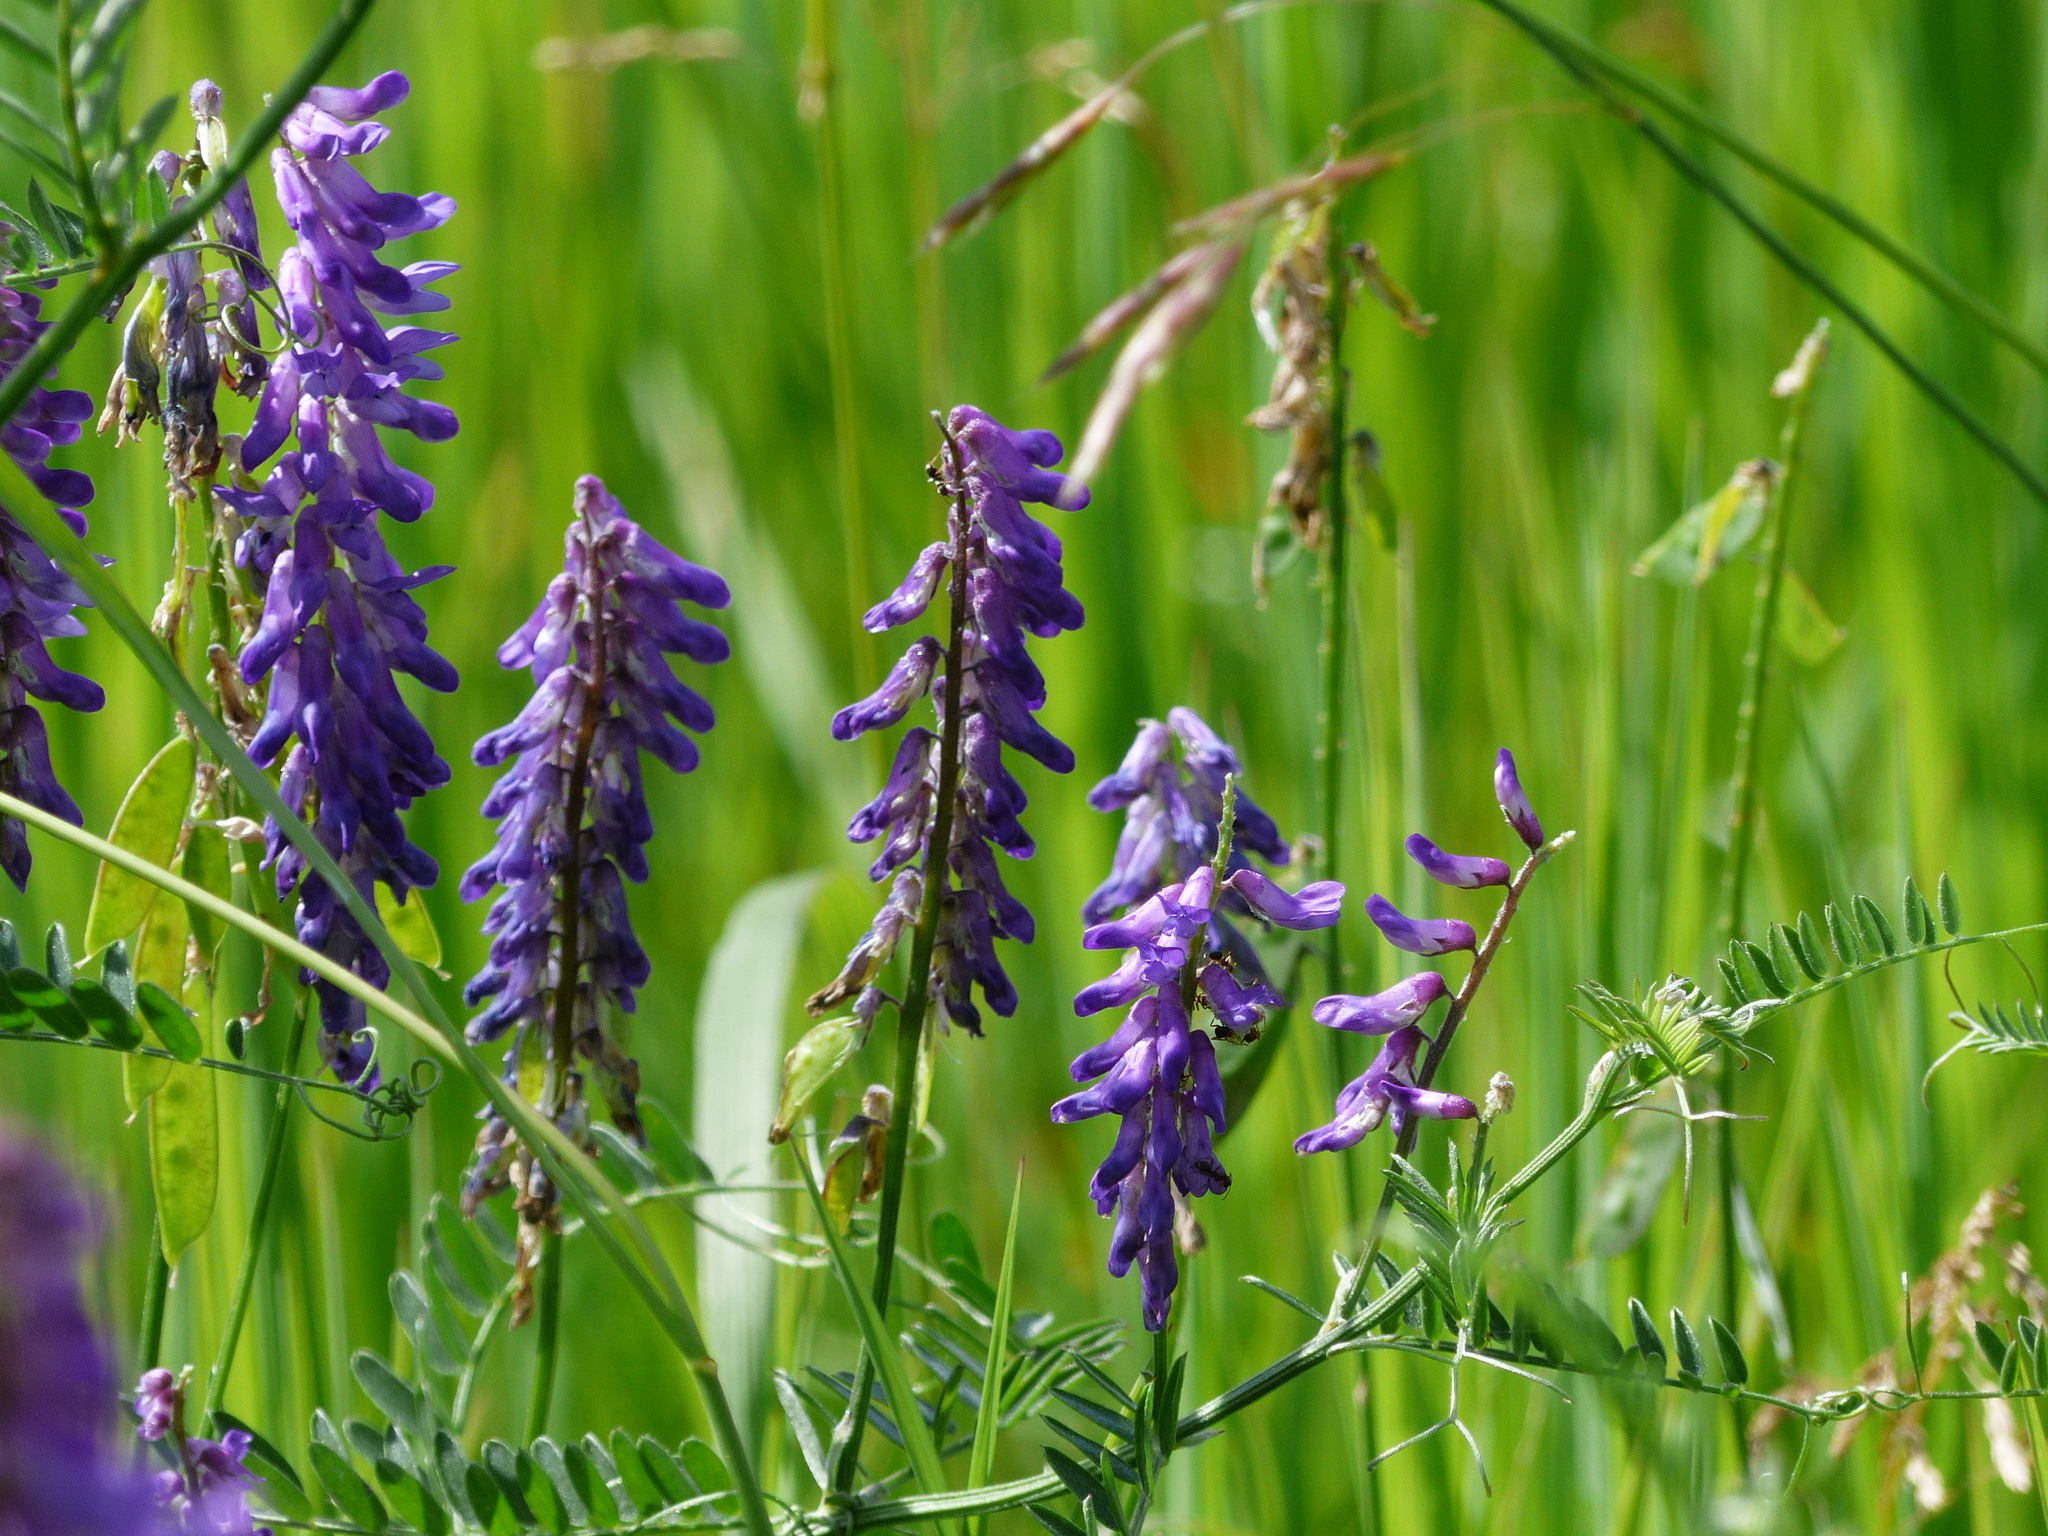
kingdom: Plantae
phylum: Tracheophyta
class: Magnoliopsida
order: Fabales
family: Fabaceae
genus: Vicia
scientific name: Vicia cracca
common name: Bird vetch
